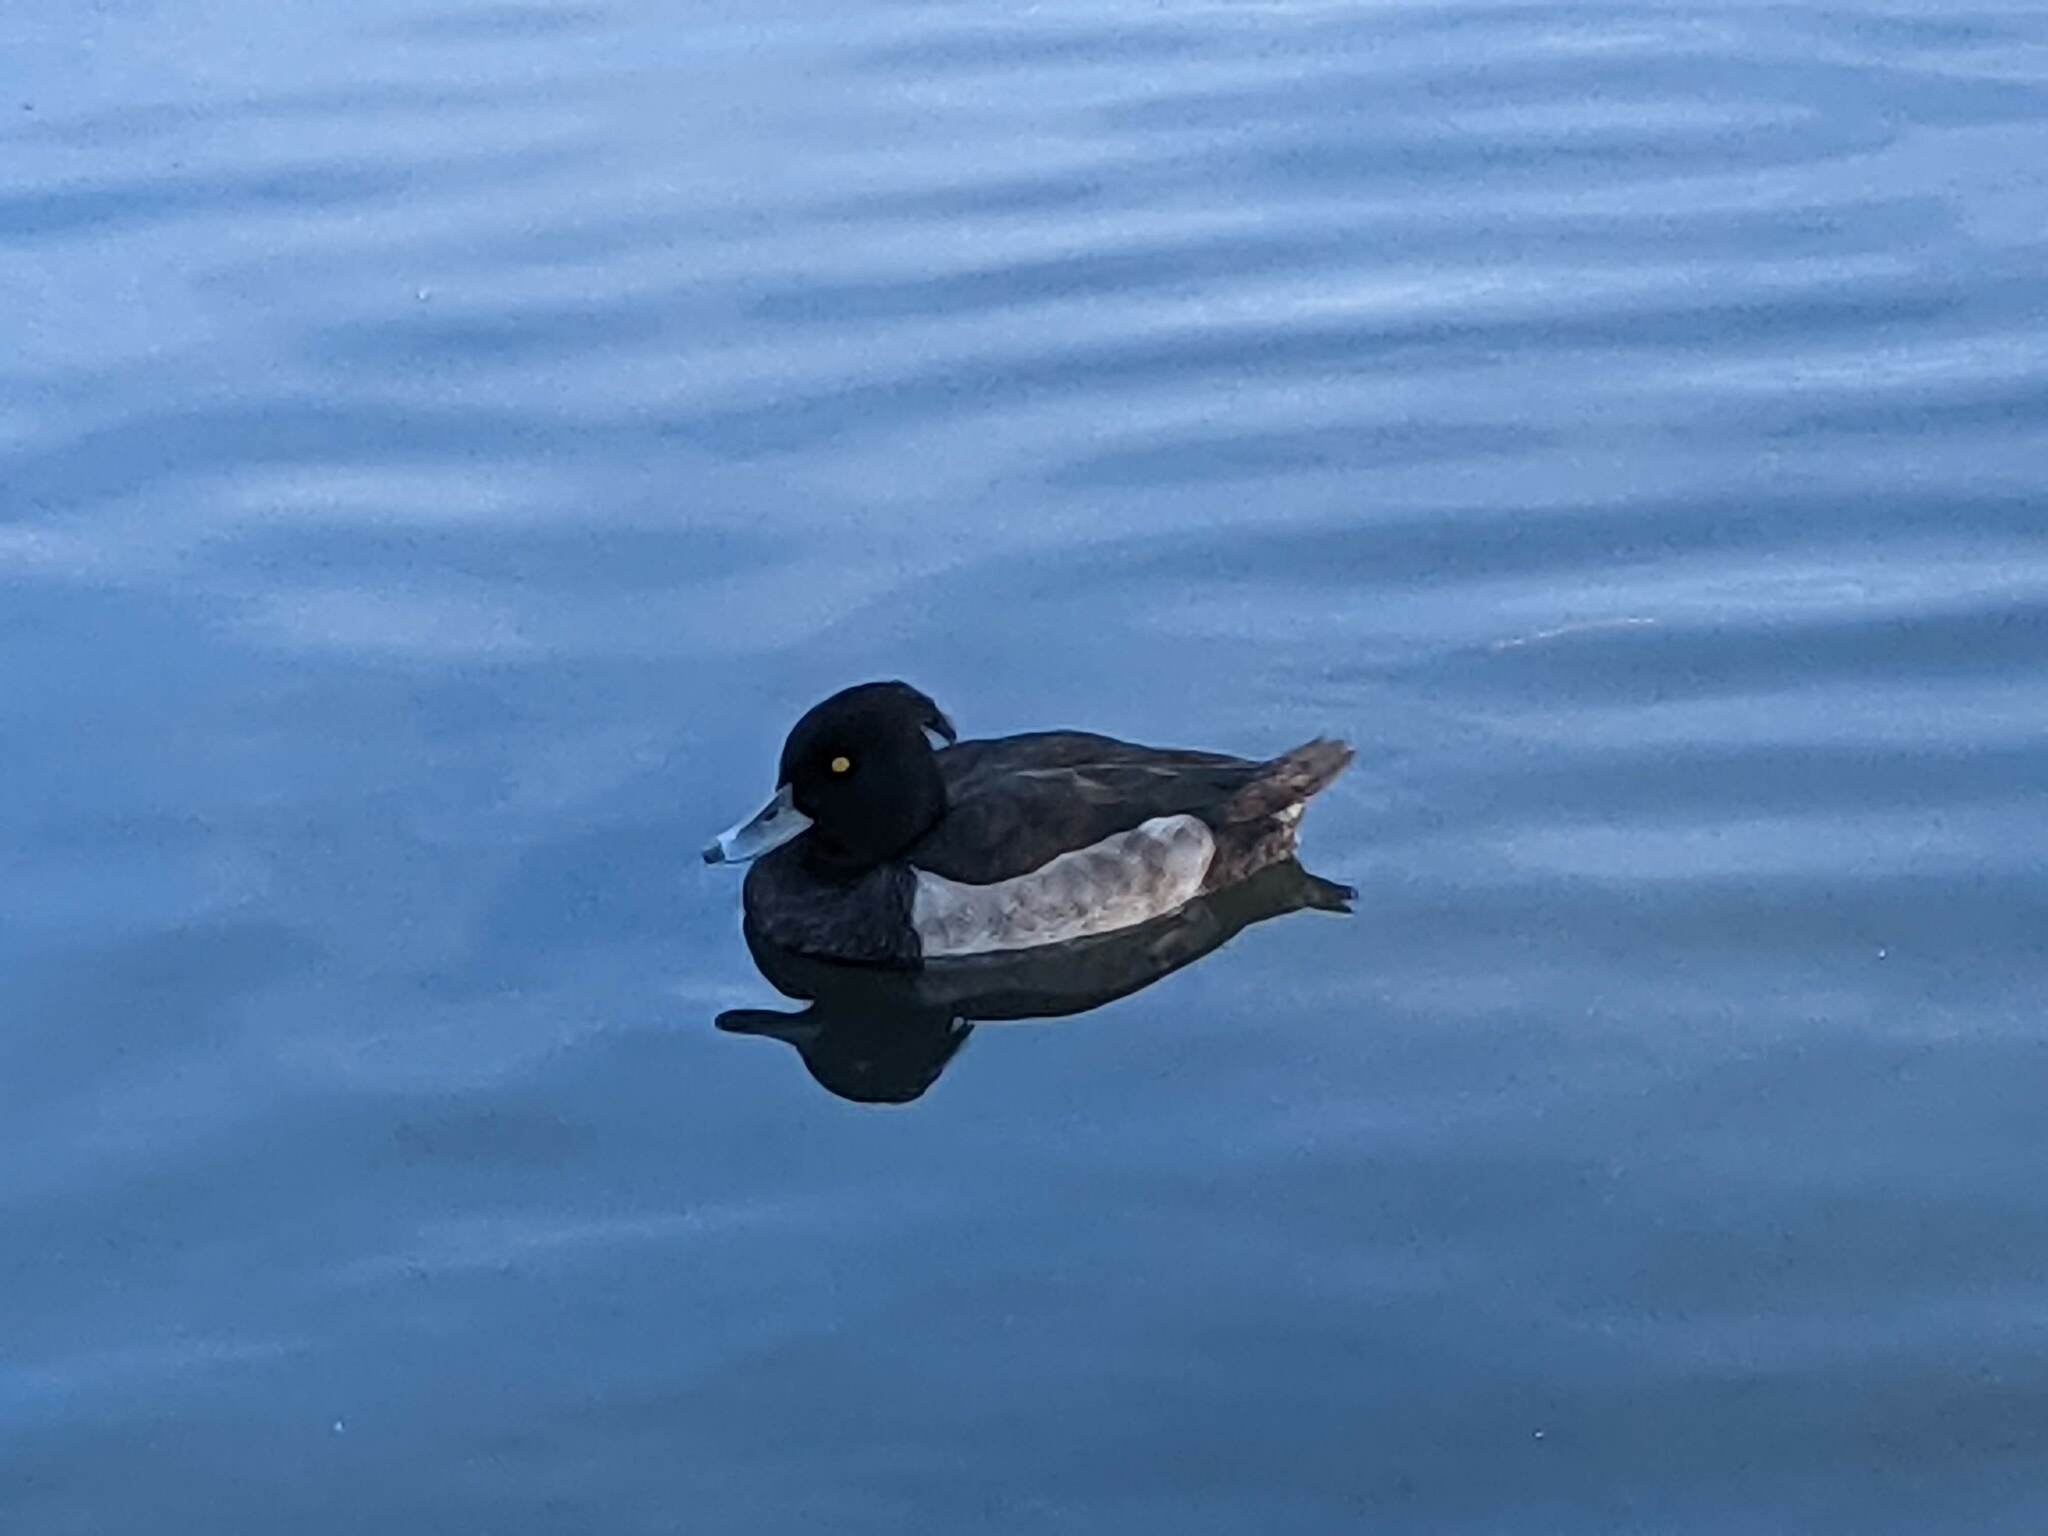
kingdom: Animalia
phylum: Chordata
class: Aves
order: Anseriformes
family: Anatidae
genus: Aythya
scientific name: Aythya fuligula
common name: Tufted duck
